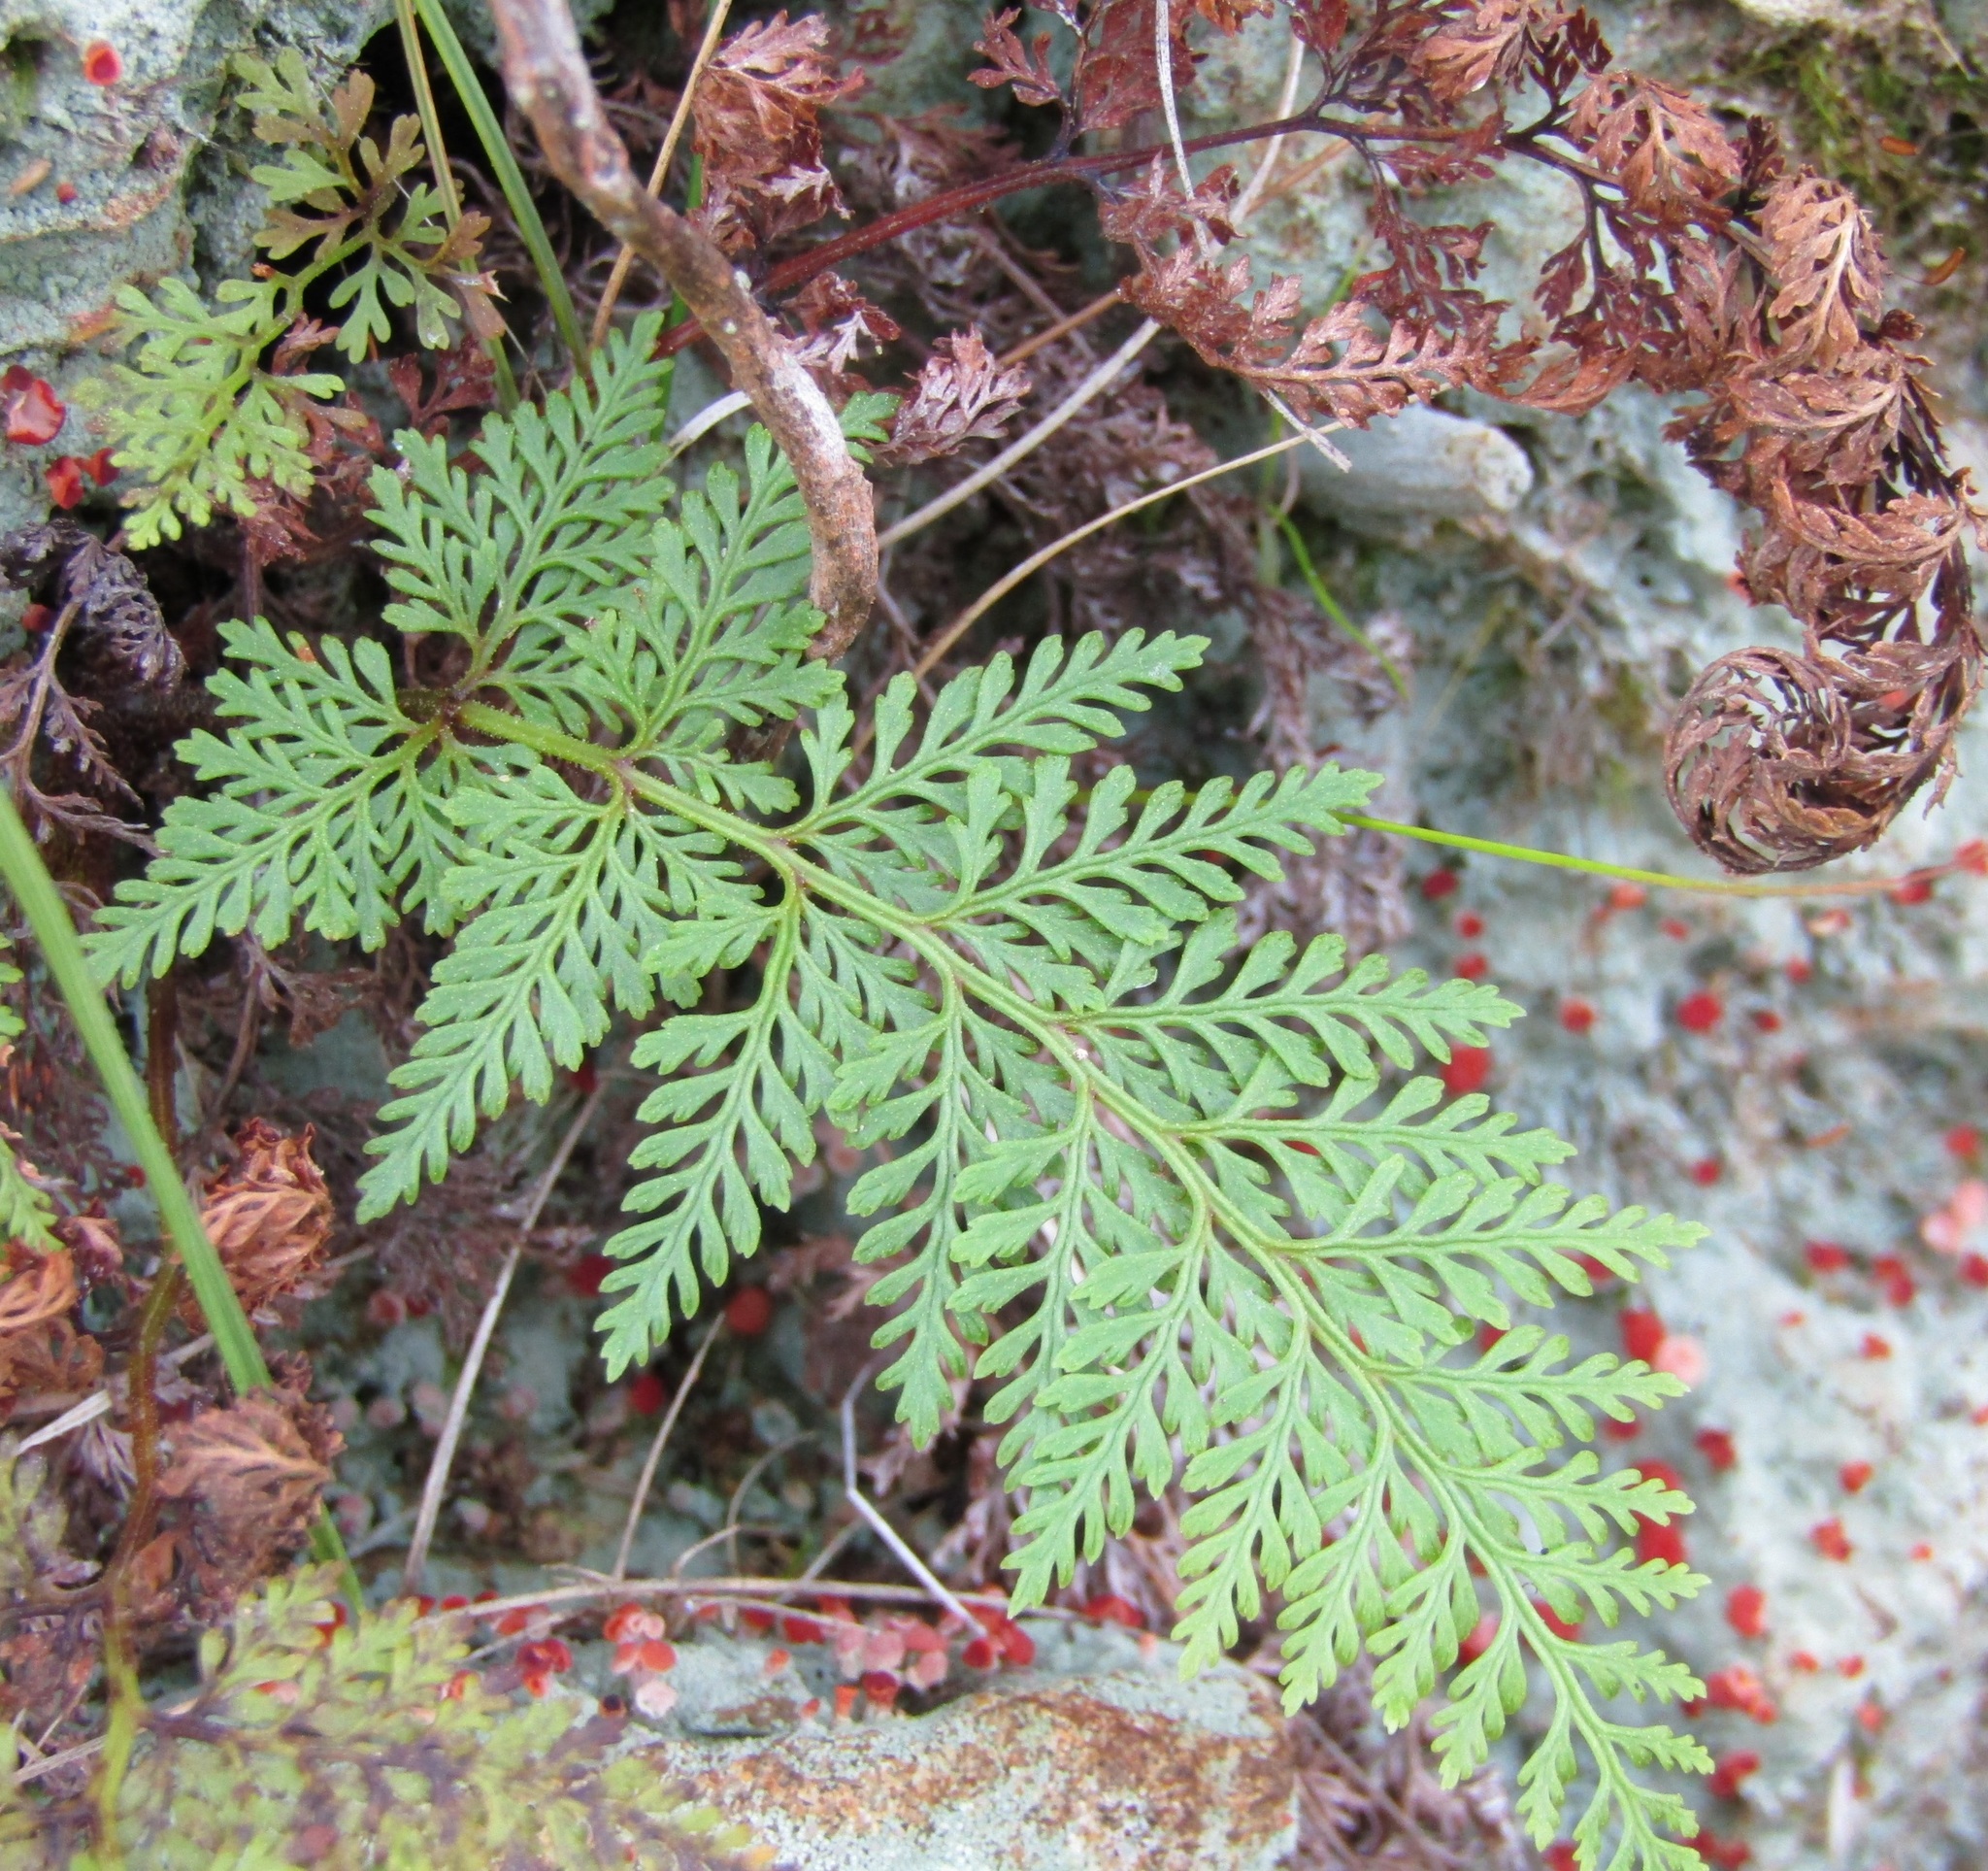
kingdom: Plantae
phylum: Tracheophyta
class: Polypodiopsida
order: Polypodiales
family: Dennstaedtiaceae
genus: Paesia
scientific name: Paesia scaberula
